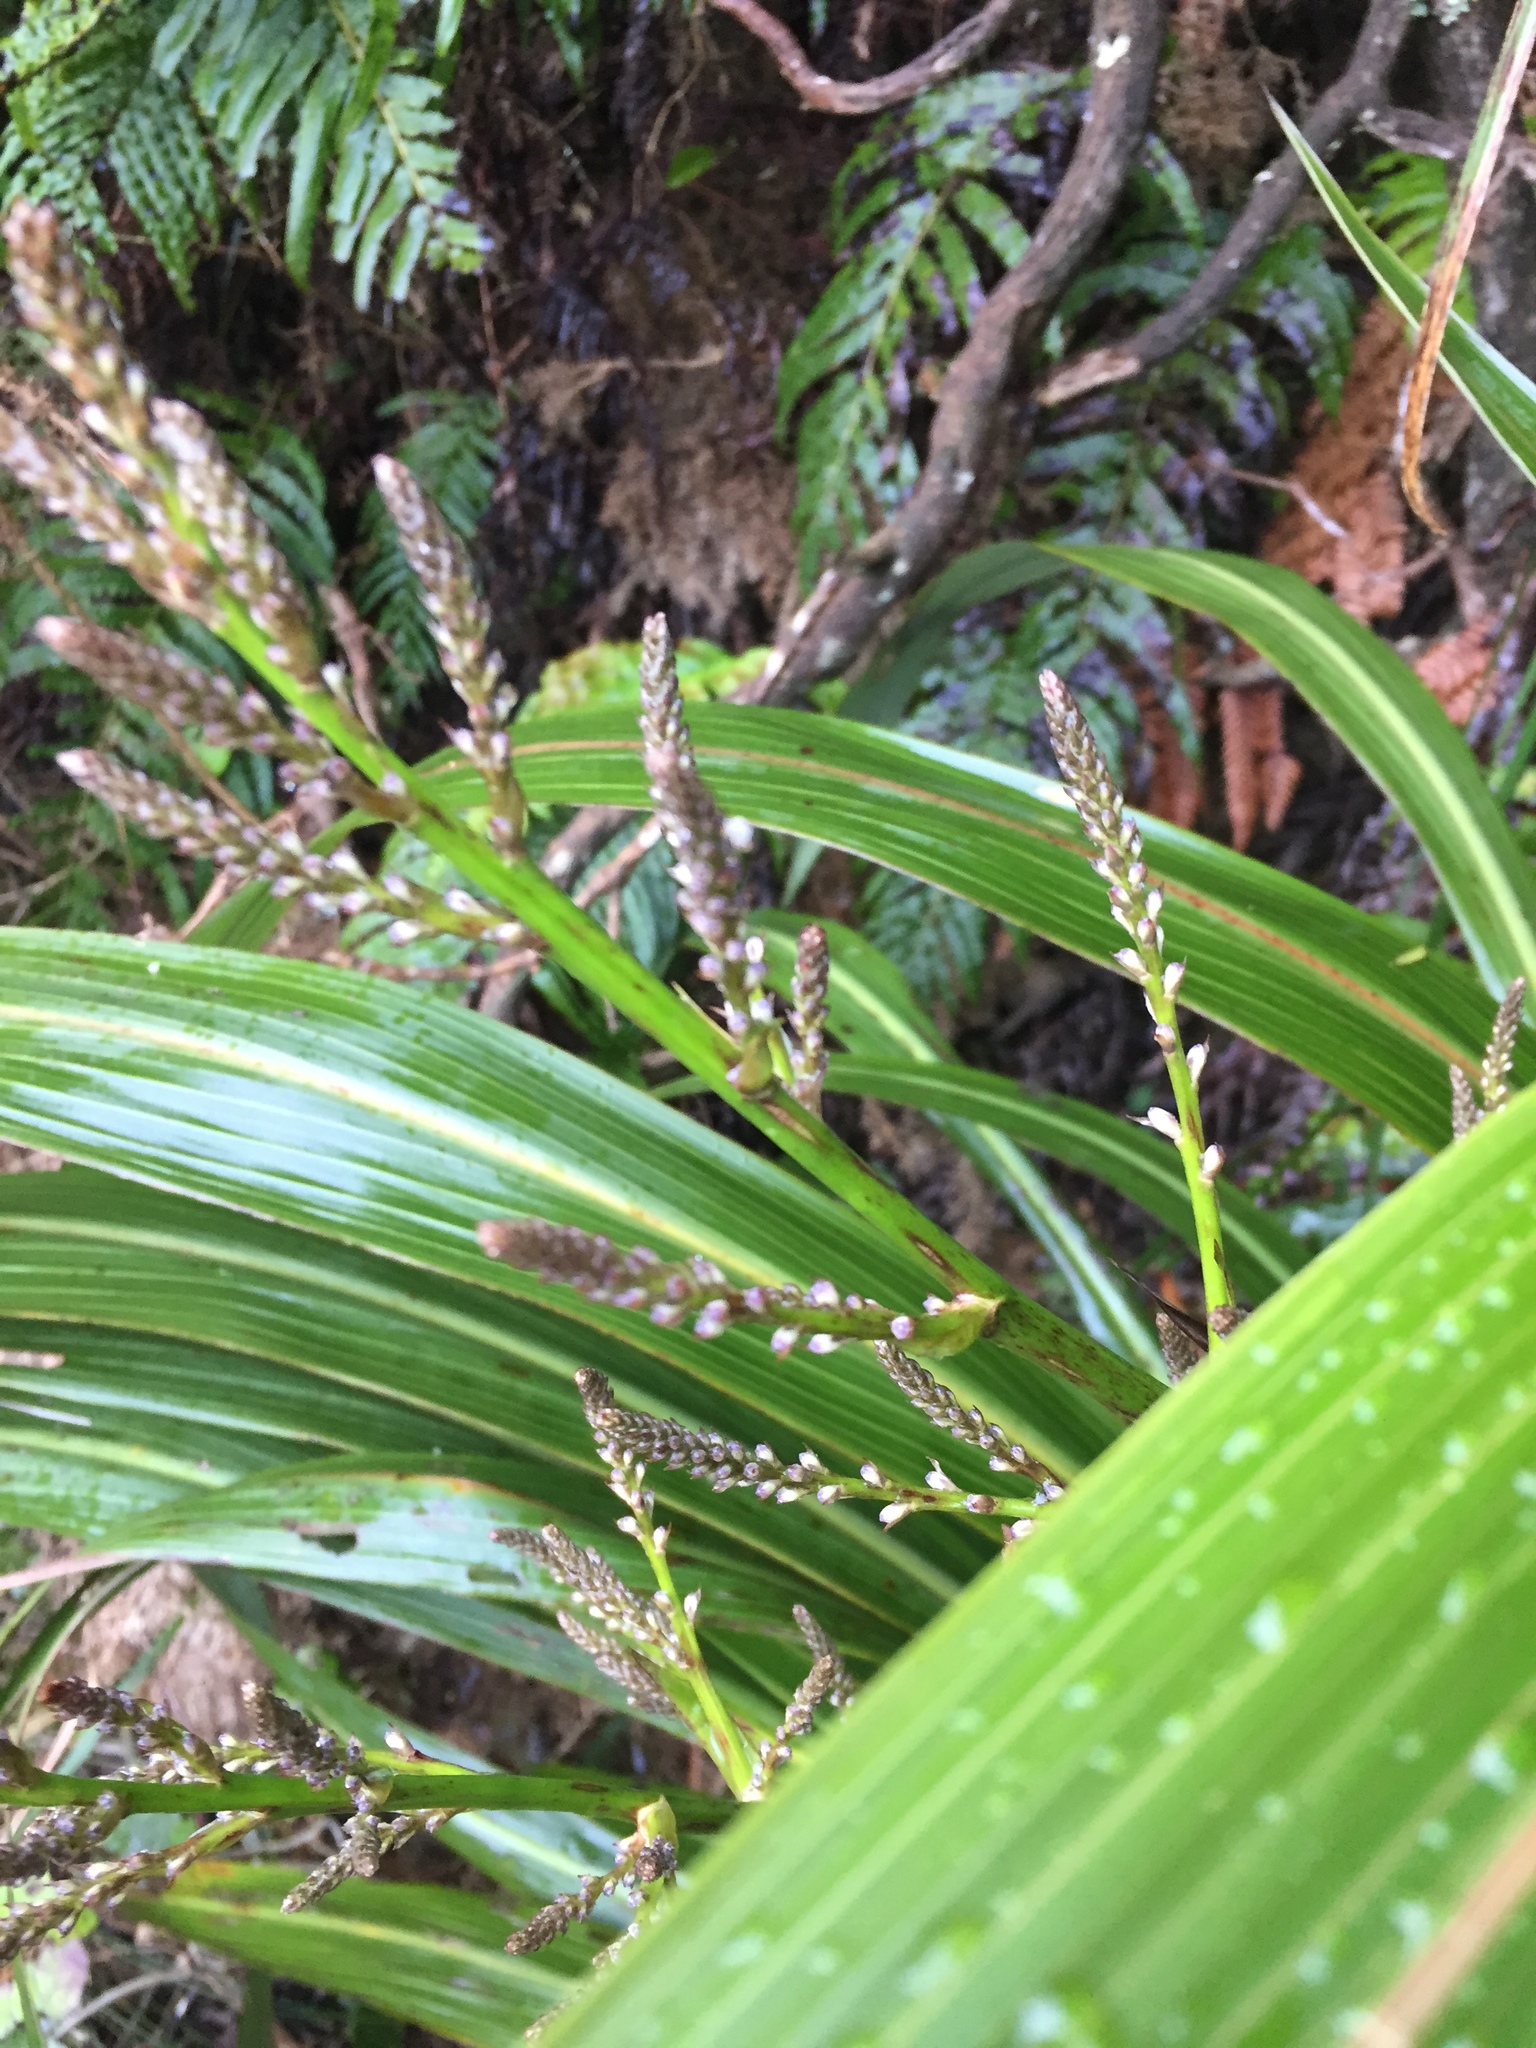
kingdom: Plantae
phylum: Tracheophyta
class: Liliopsida
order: Asparagales
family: Asparagaceae
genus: Cordyline
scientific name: Cordyline banksii
